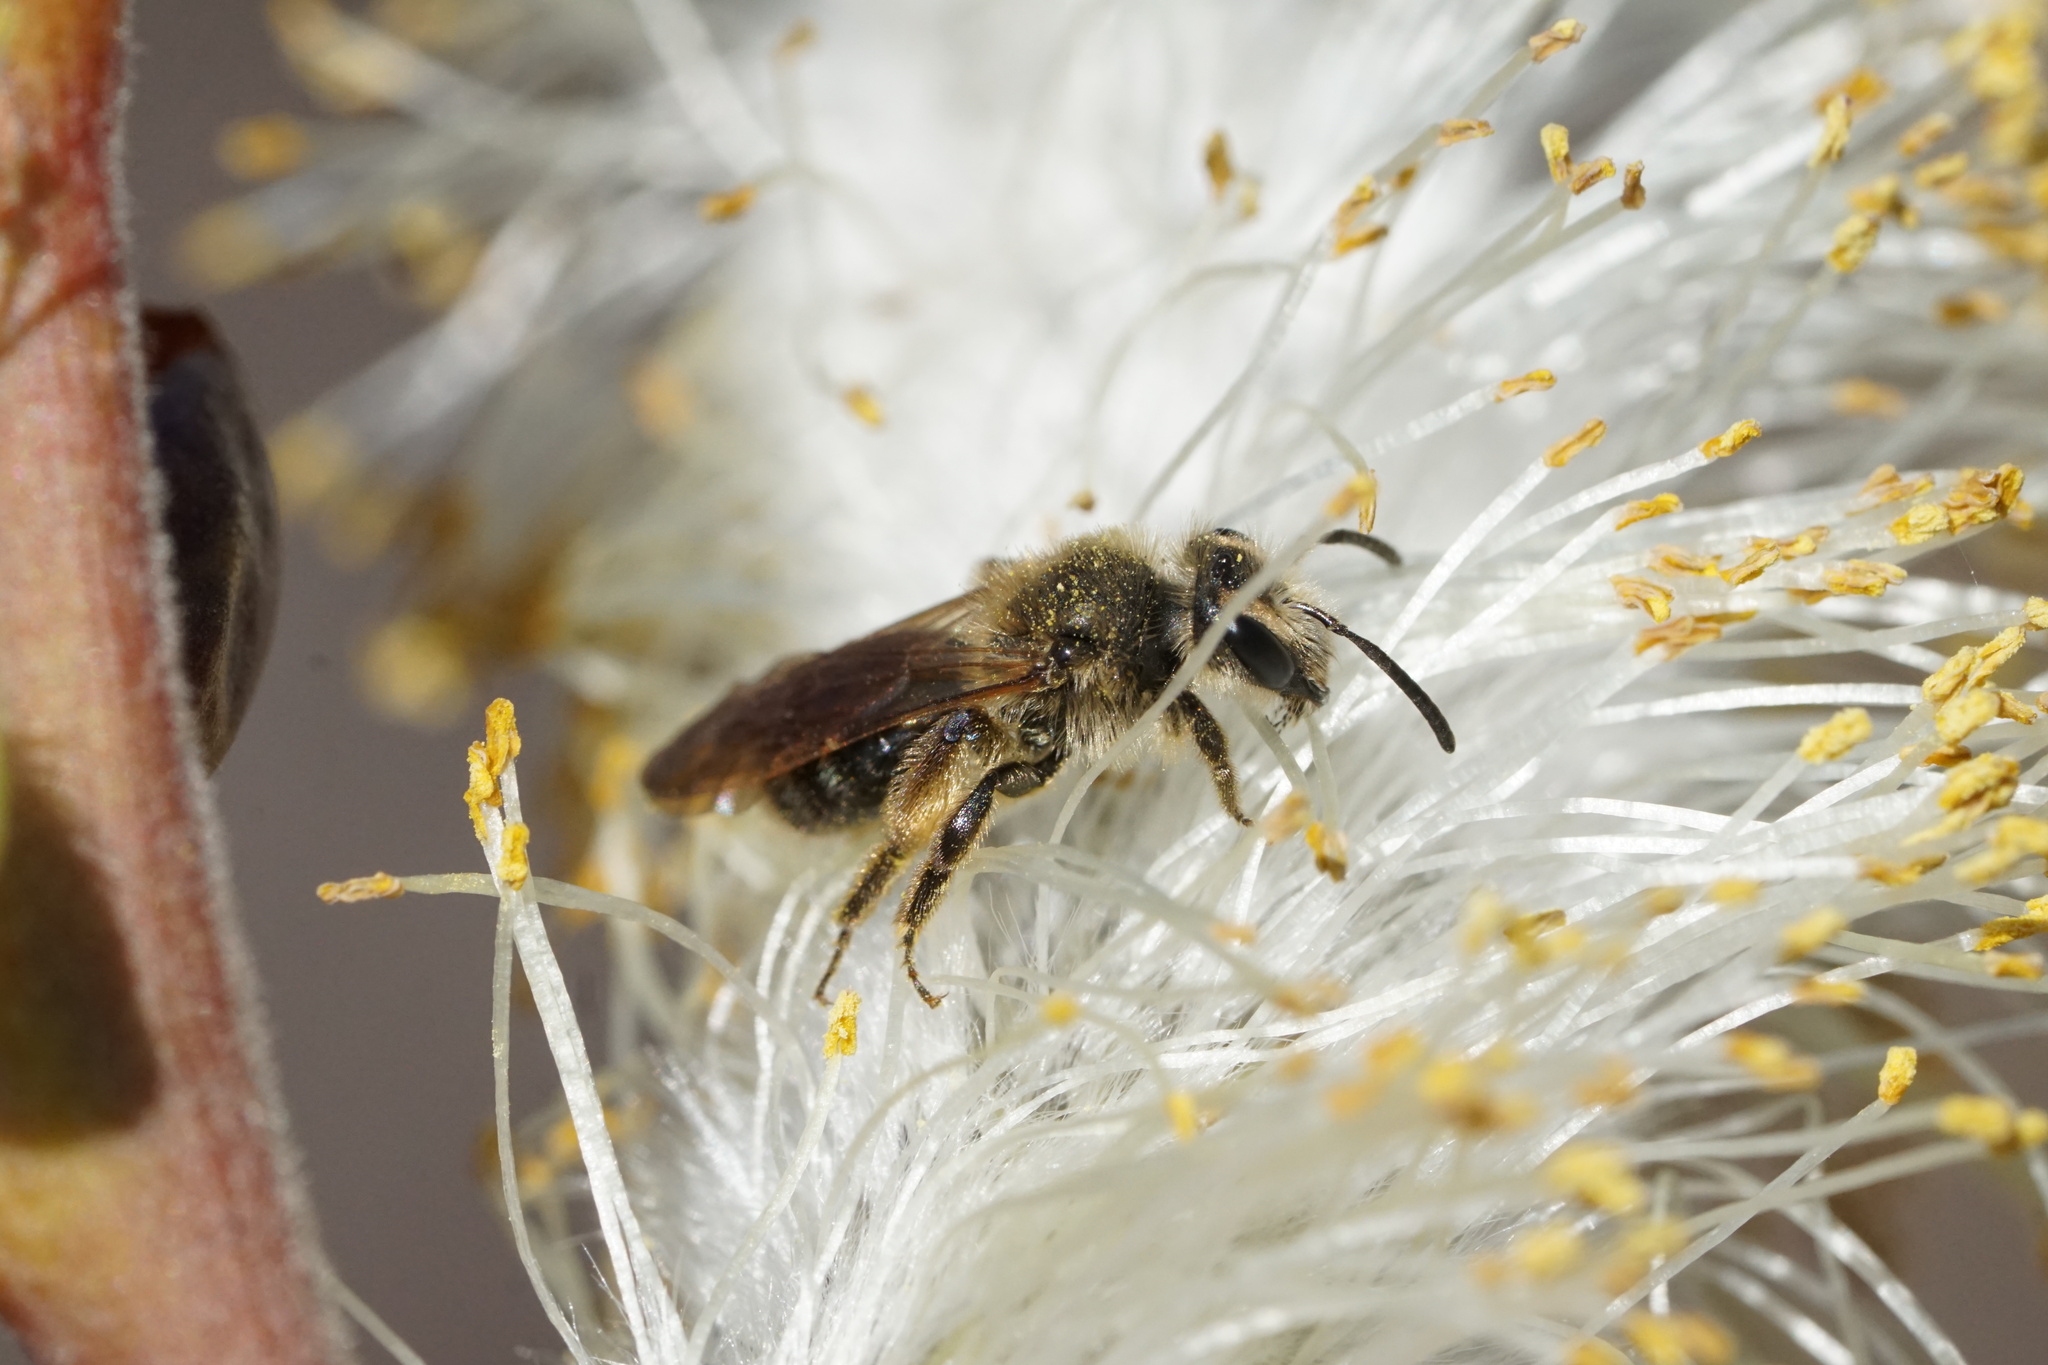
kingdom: Animalia
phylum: Arthropoda
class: Insecta
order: Hymenoptera
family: Andrenidae
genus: Andrena
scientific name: Andrena mandibularis
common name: Toothed miner bee
